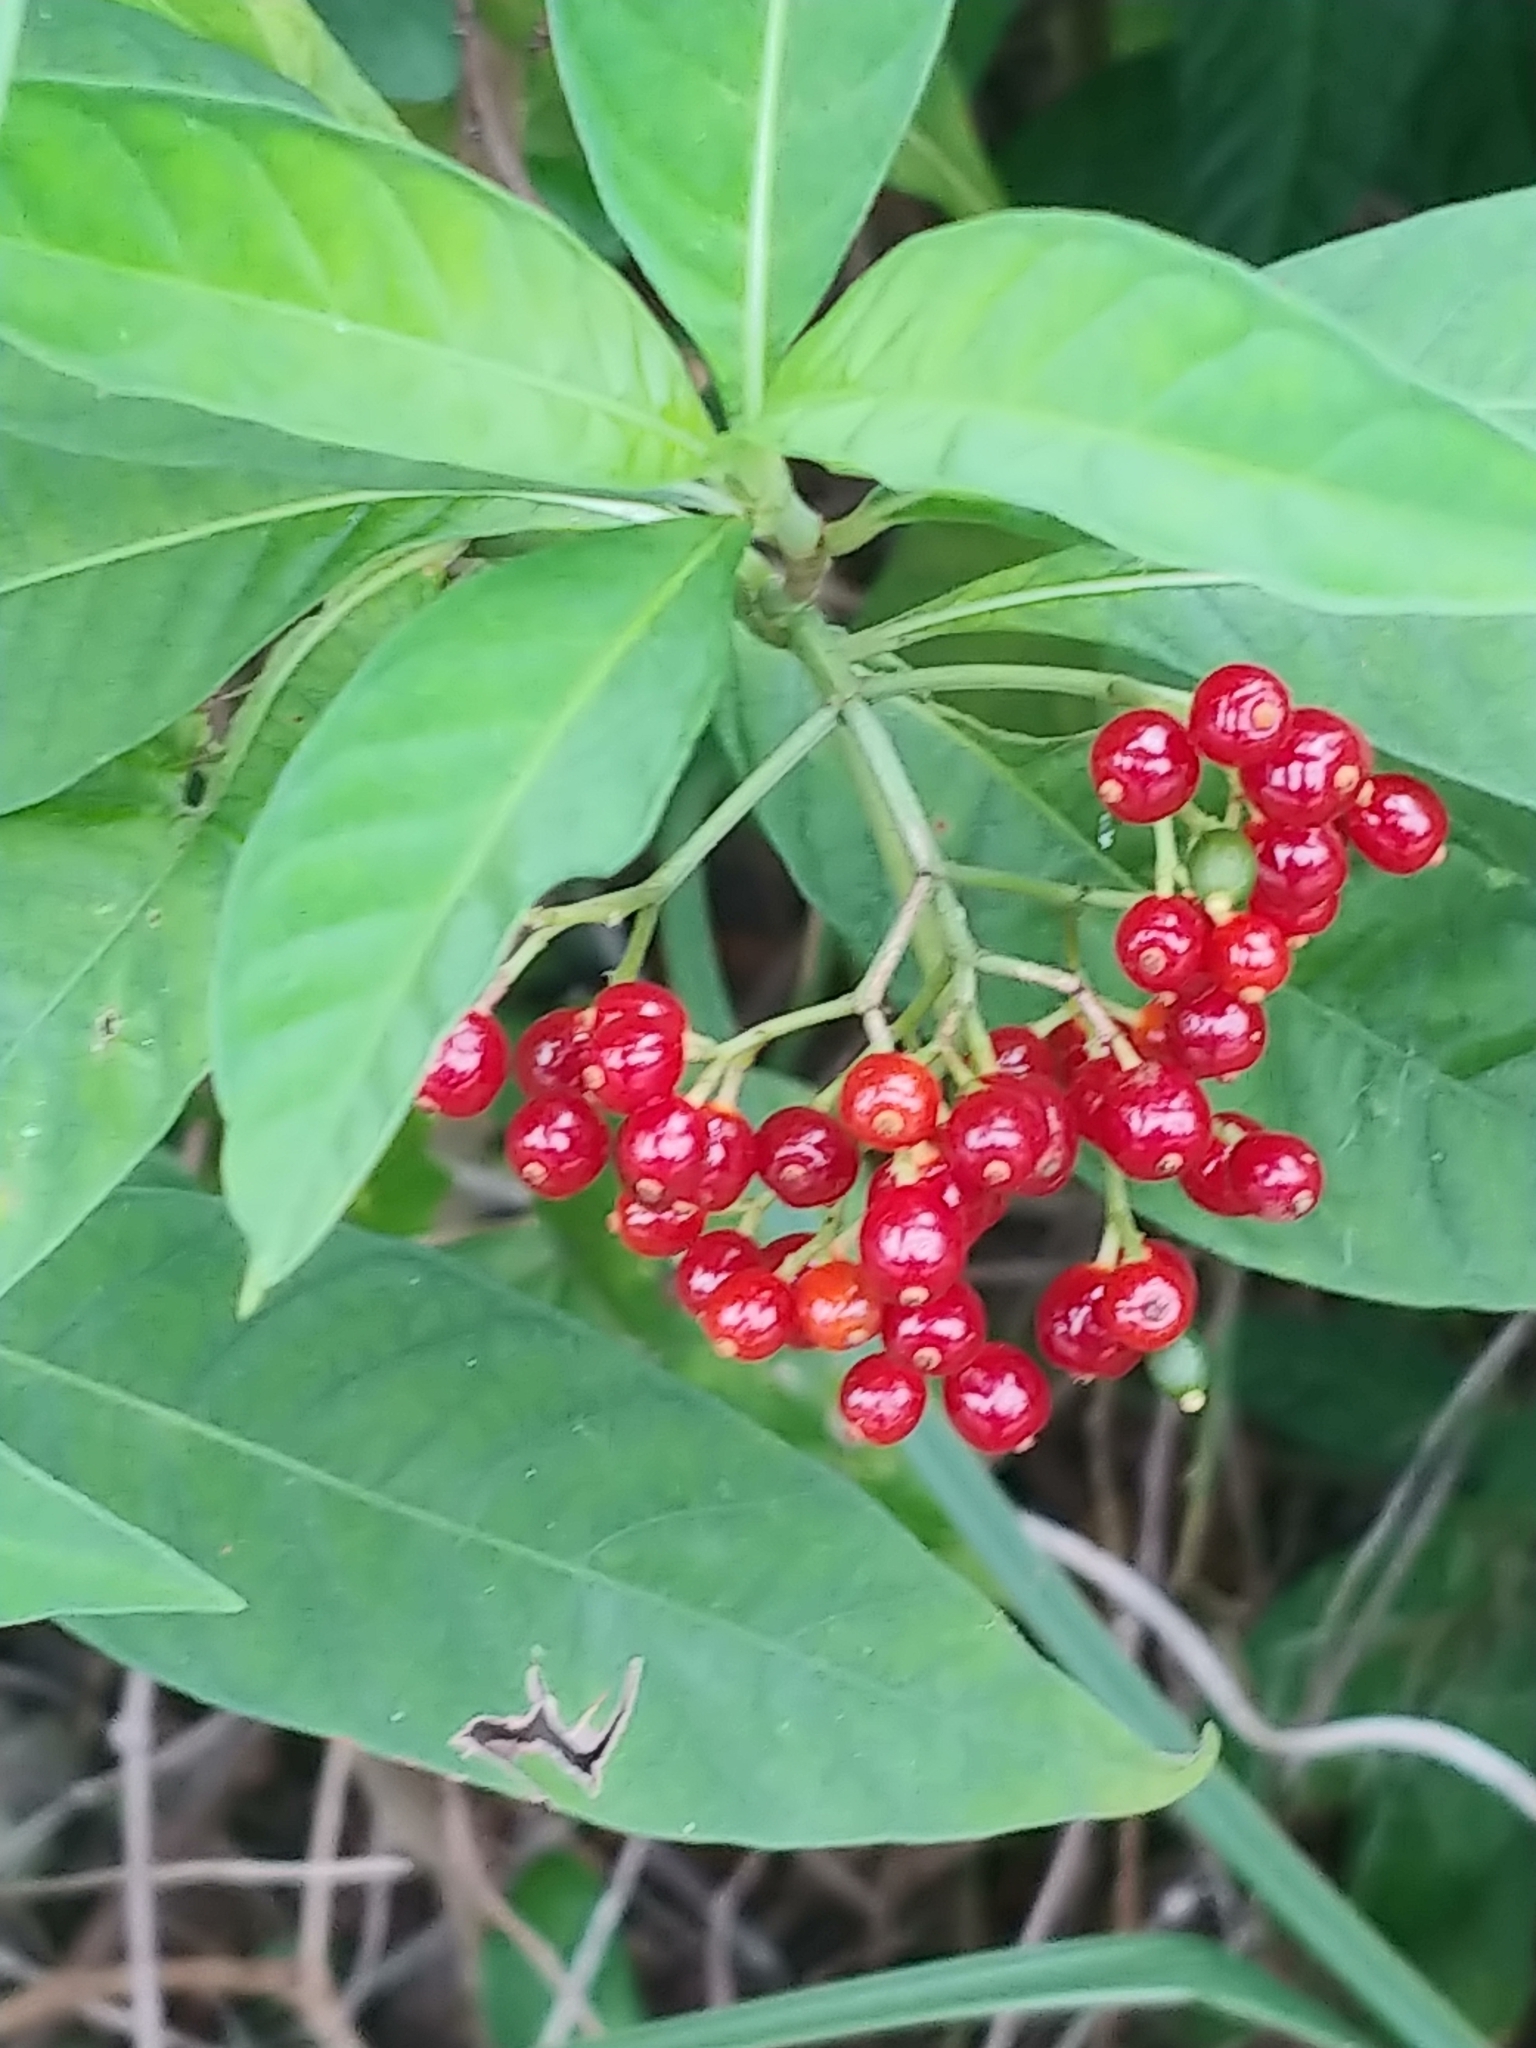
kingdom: Plantae
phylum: Tracheophyta
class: Magnoliopsida
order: Gentianales
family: Rubiaceae
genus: Psychotria
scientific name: Psychotria tenuifolia
